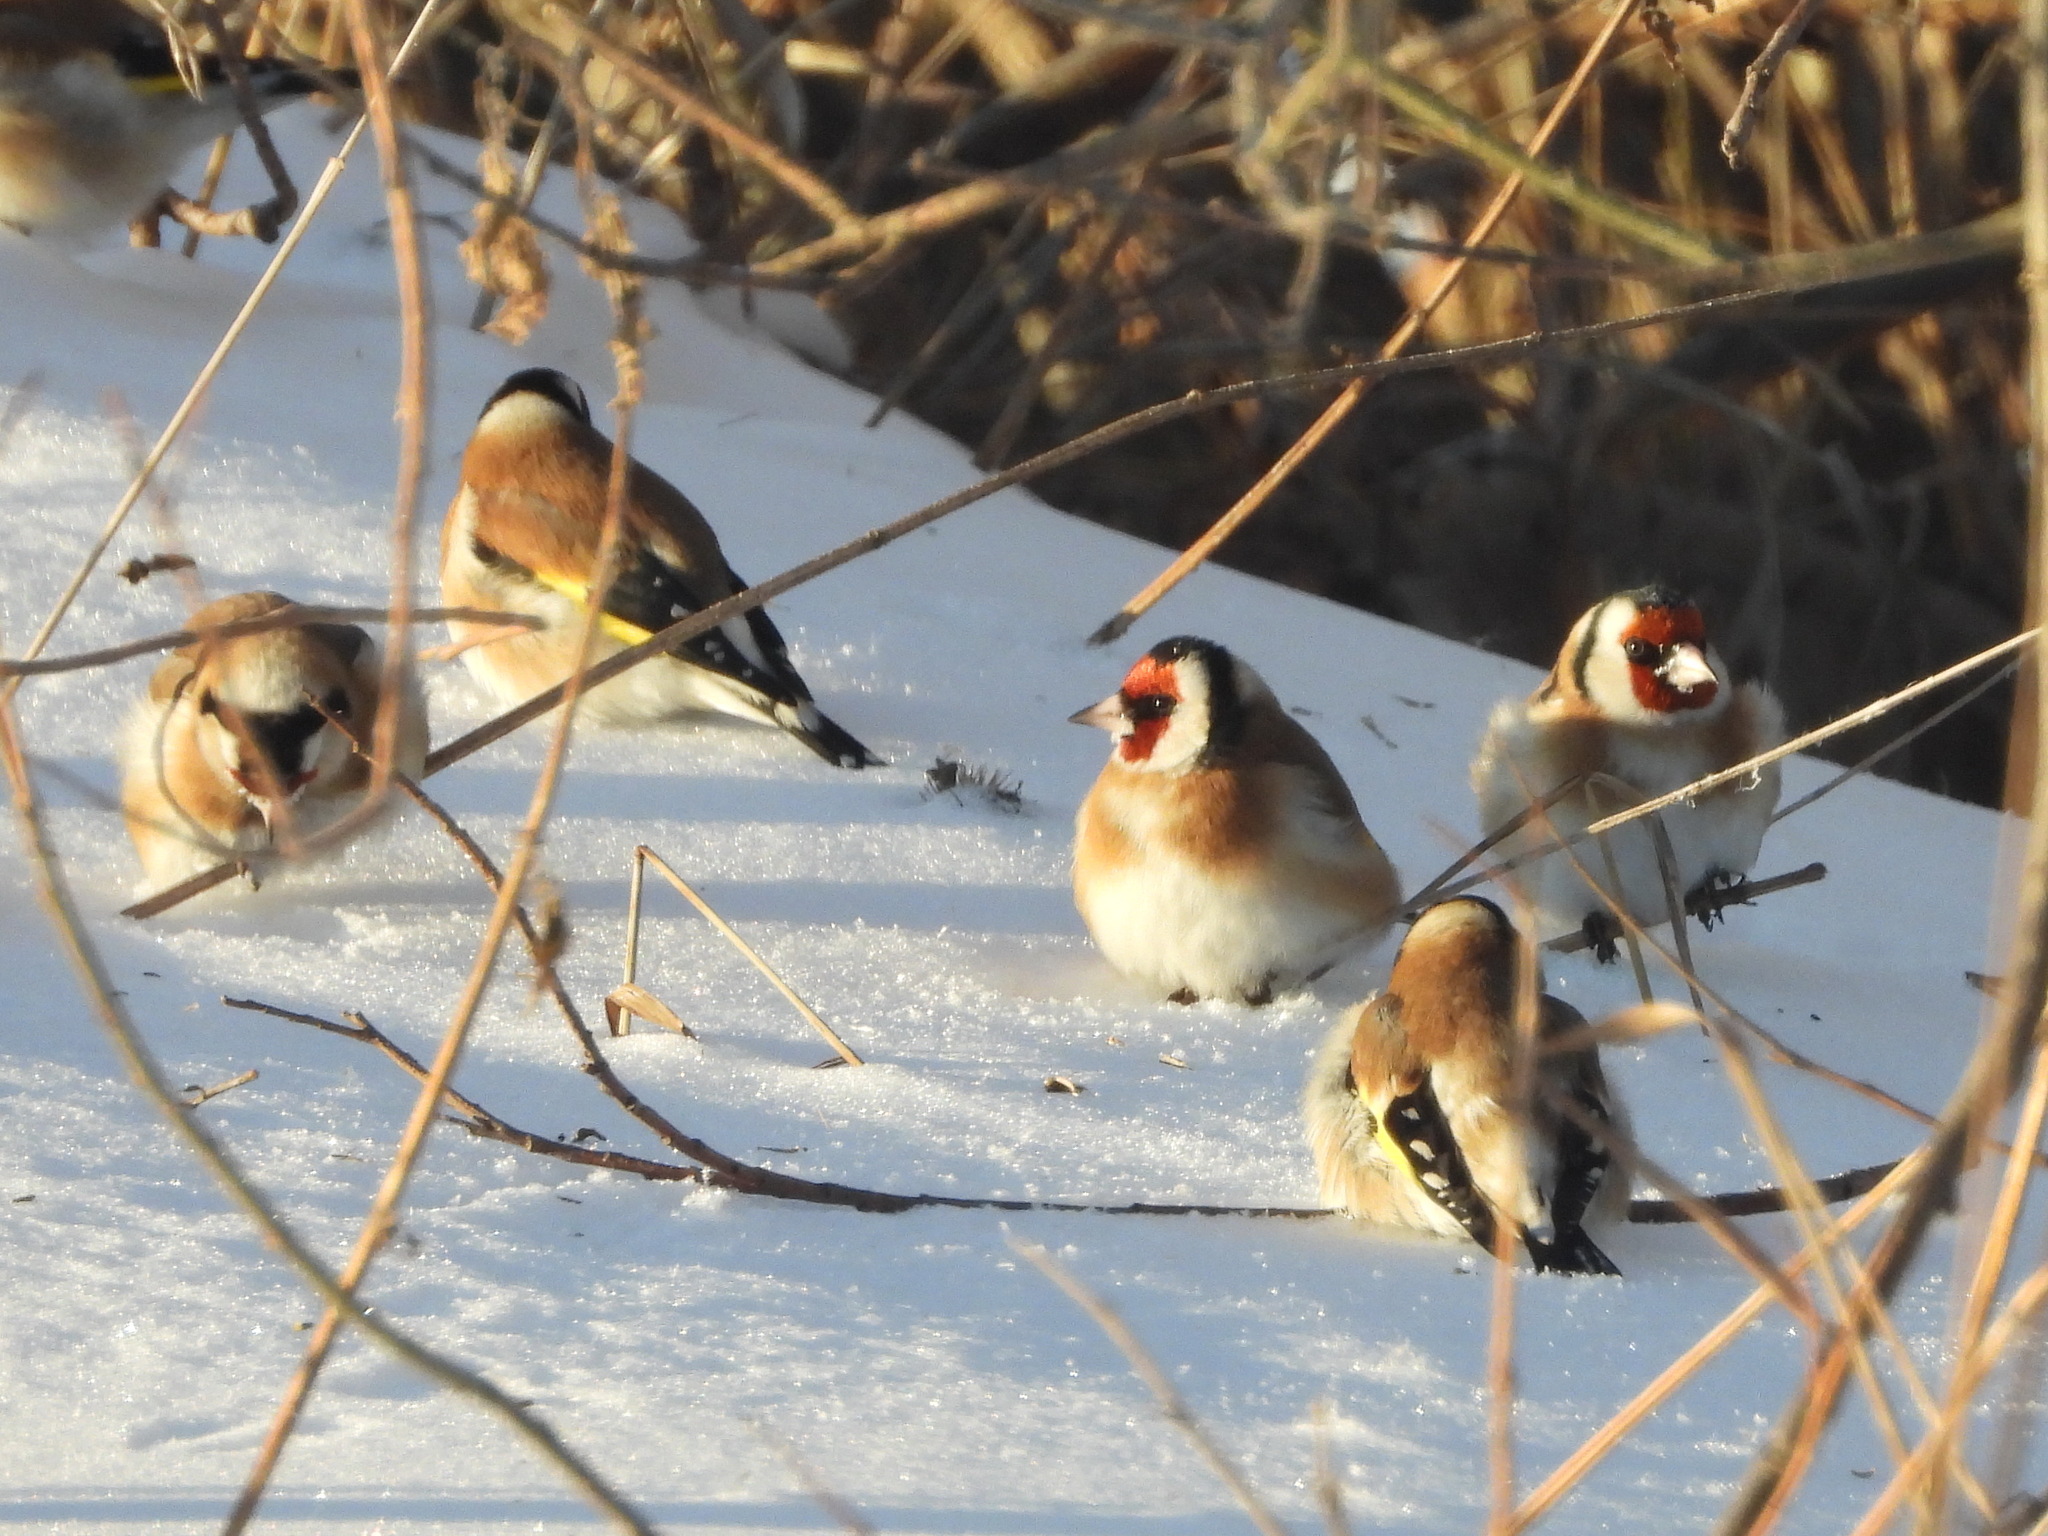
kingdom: Animalia
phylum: Chordata
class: Aves
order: Passeriformes
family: Fringillidae
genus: Carduelis
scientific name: Carduelis carduelis
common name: European goldfinch
